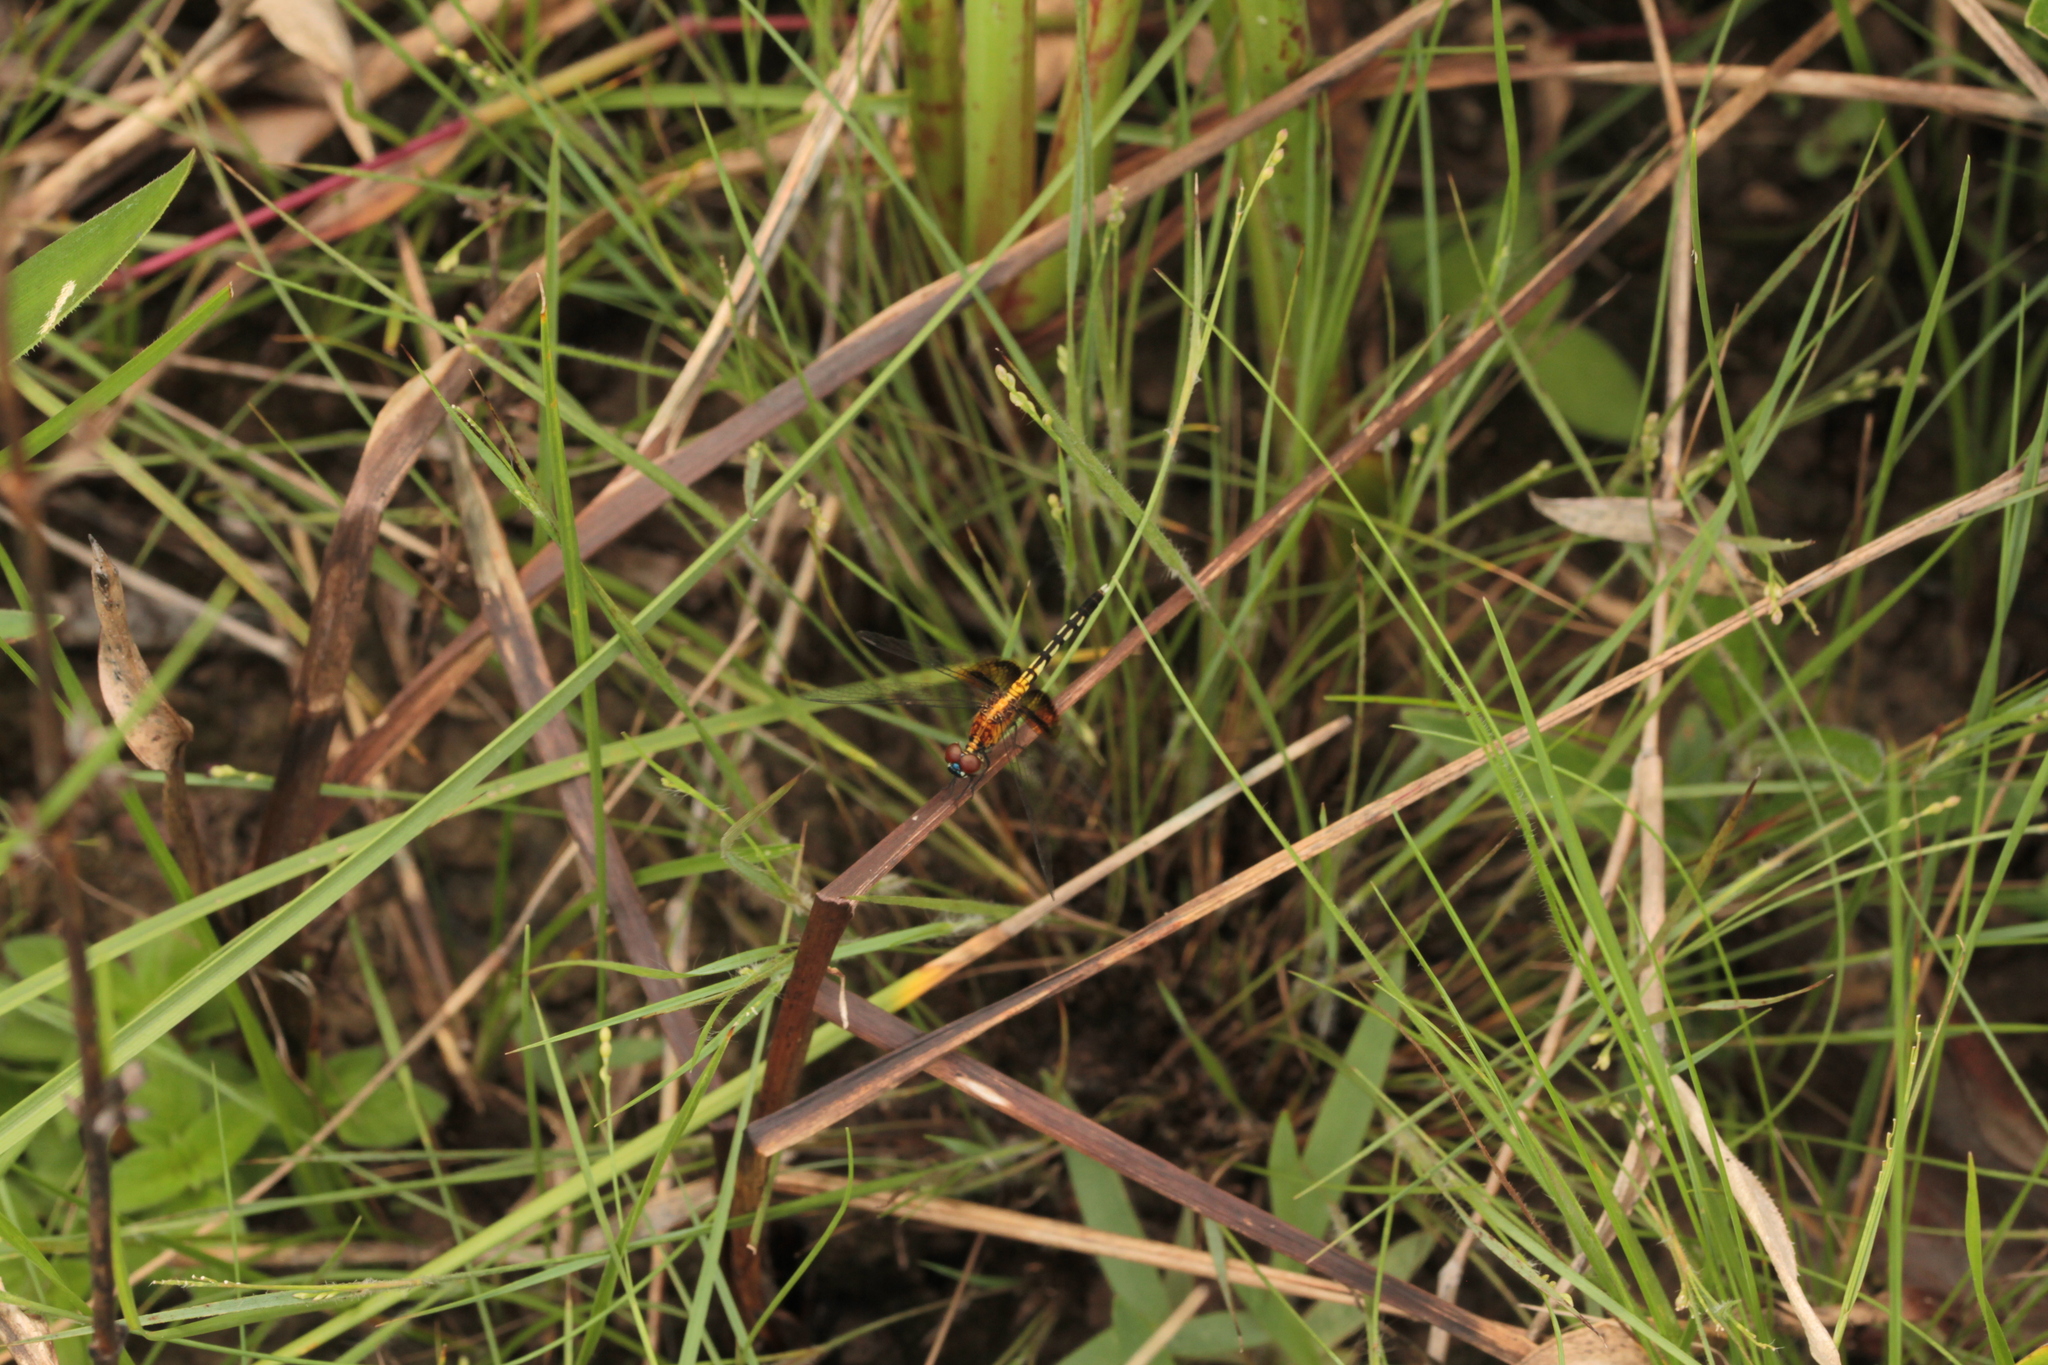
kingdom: Animalia
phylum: Arthropoda
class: Insecta
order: Odonata
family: Libellulidae
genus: Erythrodiplax
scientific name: Erythrodiplax maculosa
